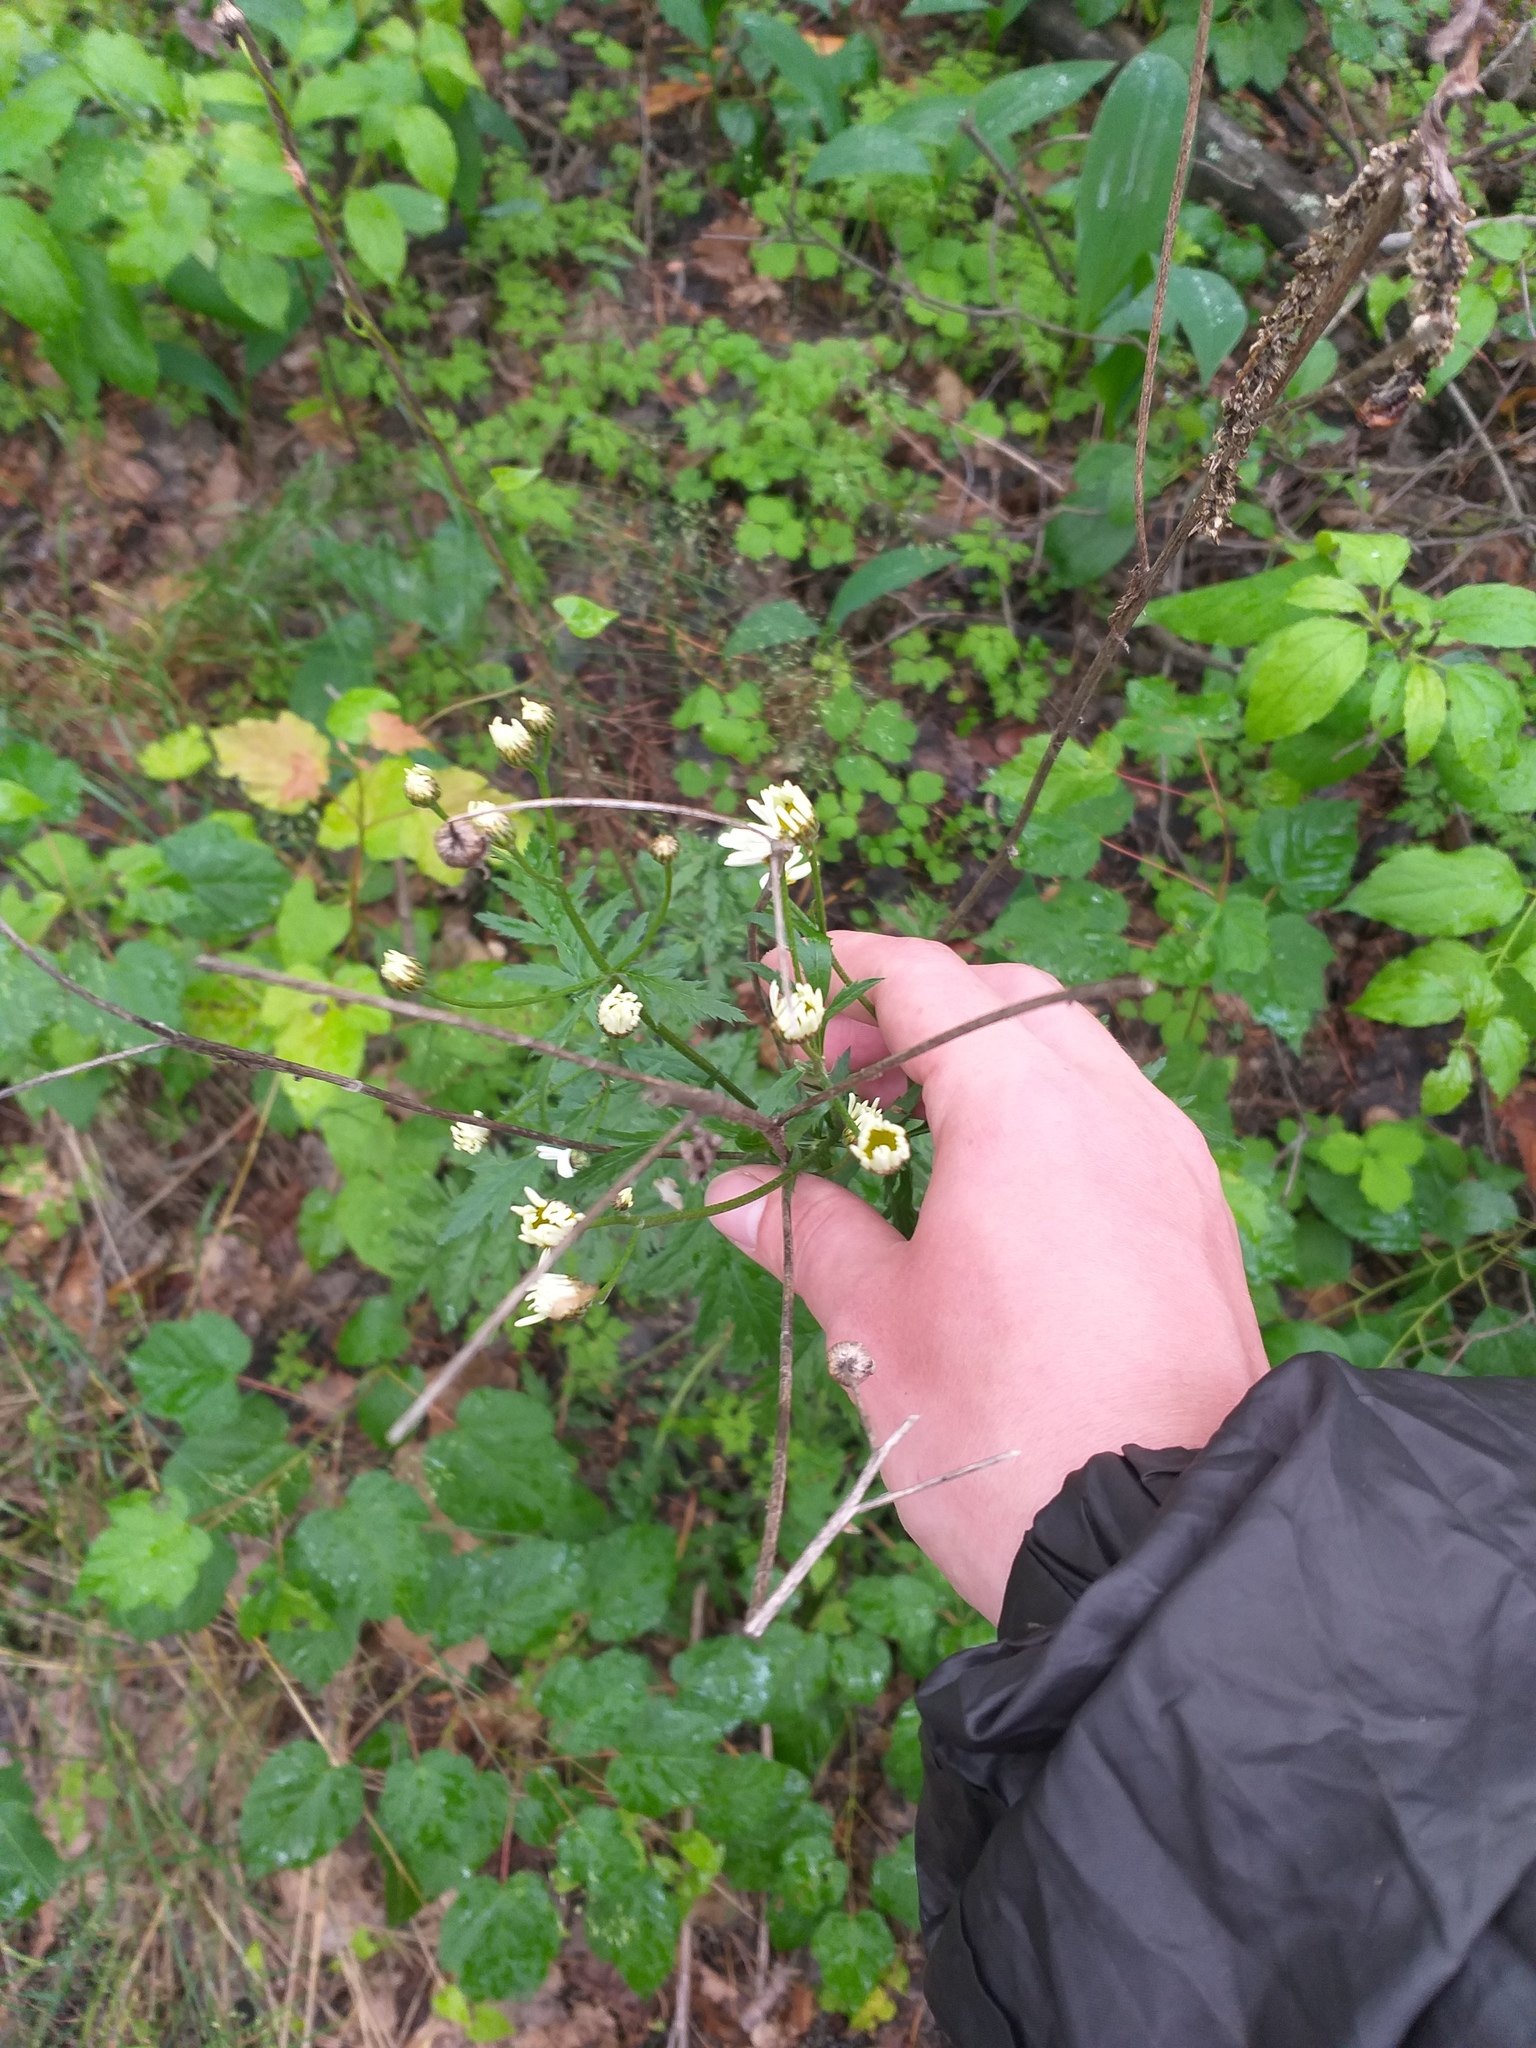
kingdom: Plantae
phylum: Tracheophyta
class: Magnoliopsida
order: Asterales
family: Asteraceae
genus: Tanacetum
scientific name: Tanacetum corymbosum
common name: Scentless feverfew
